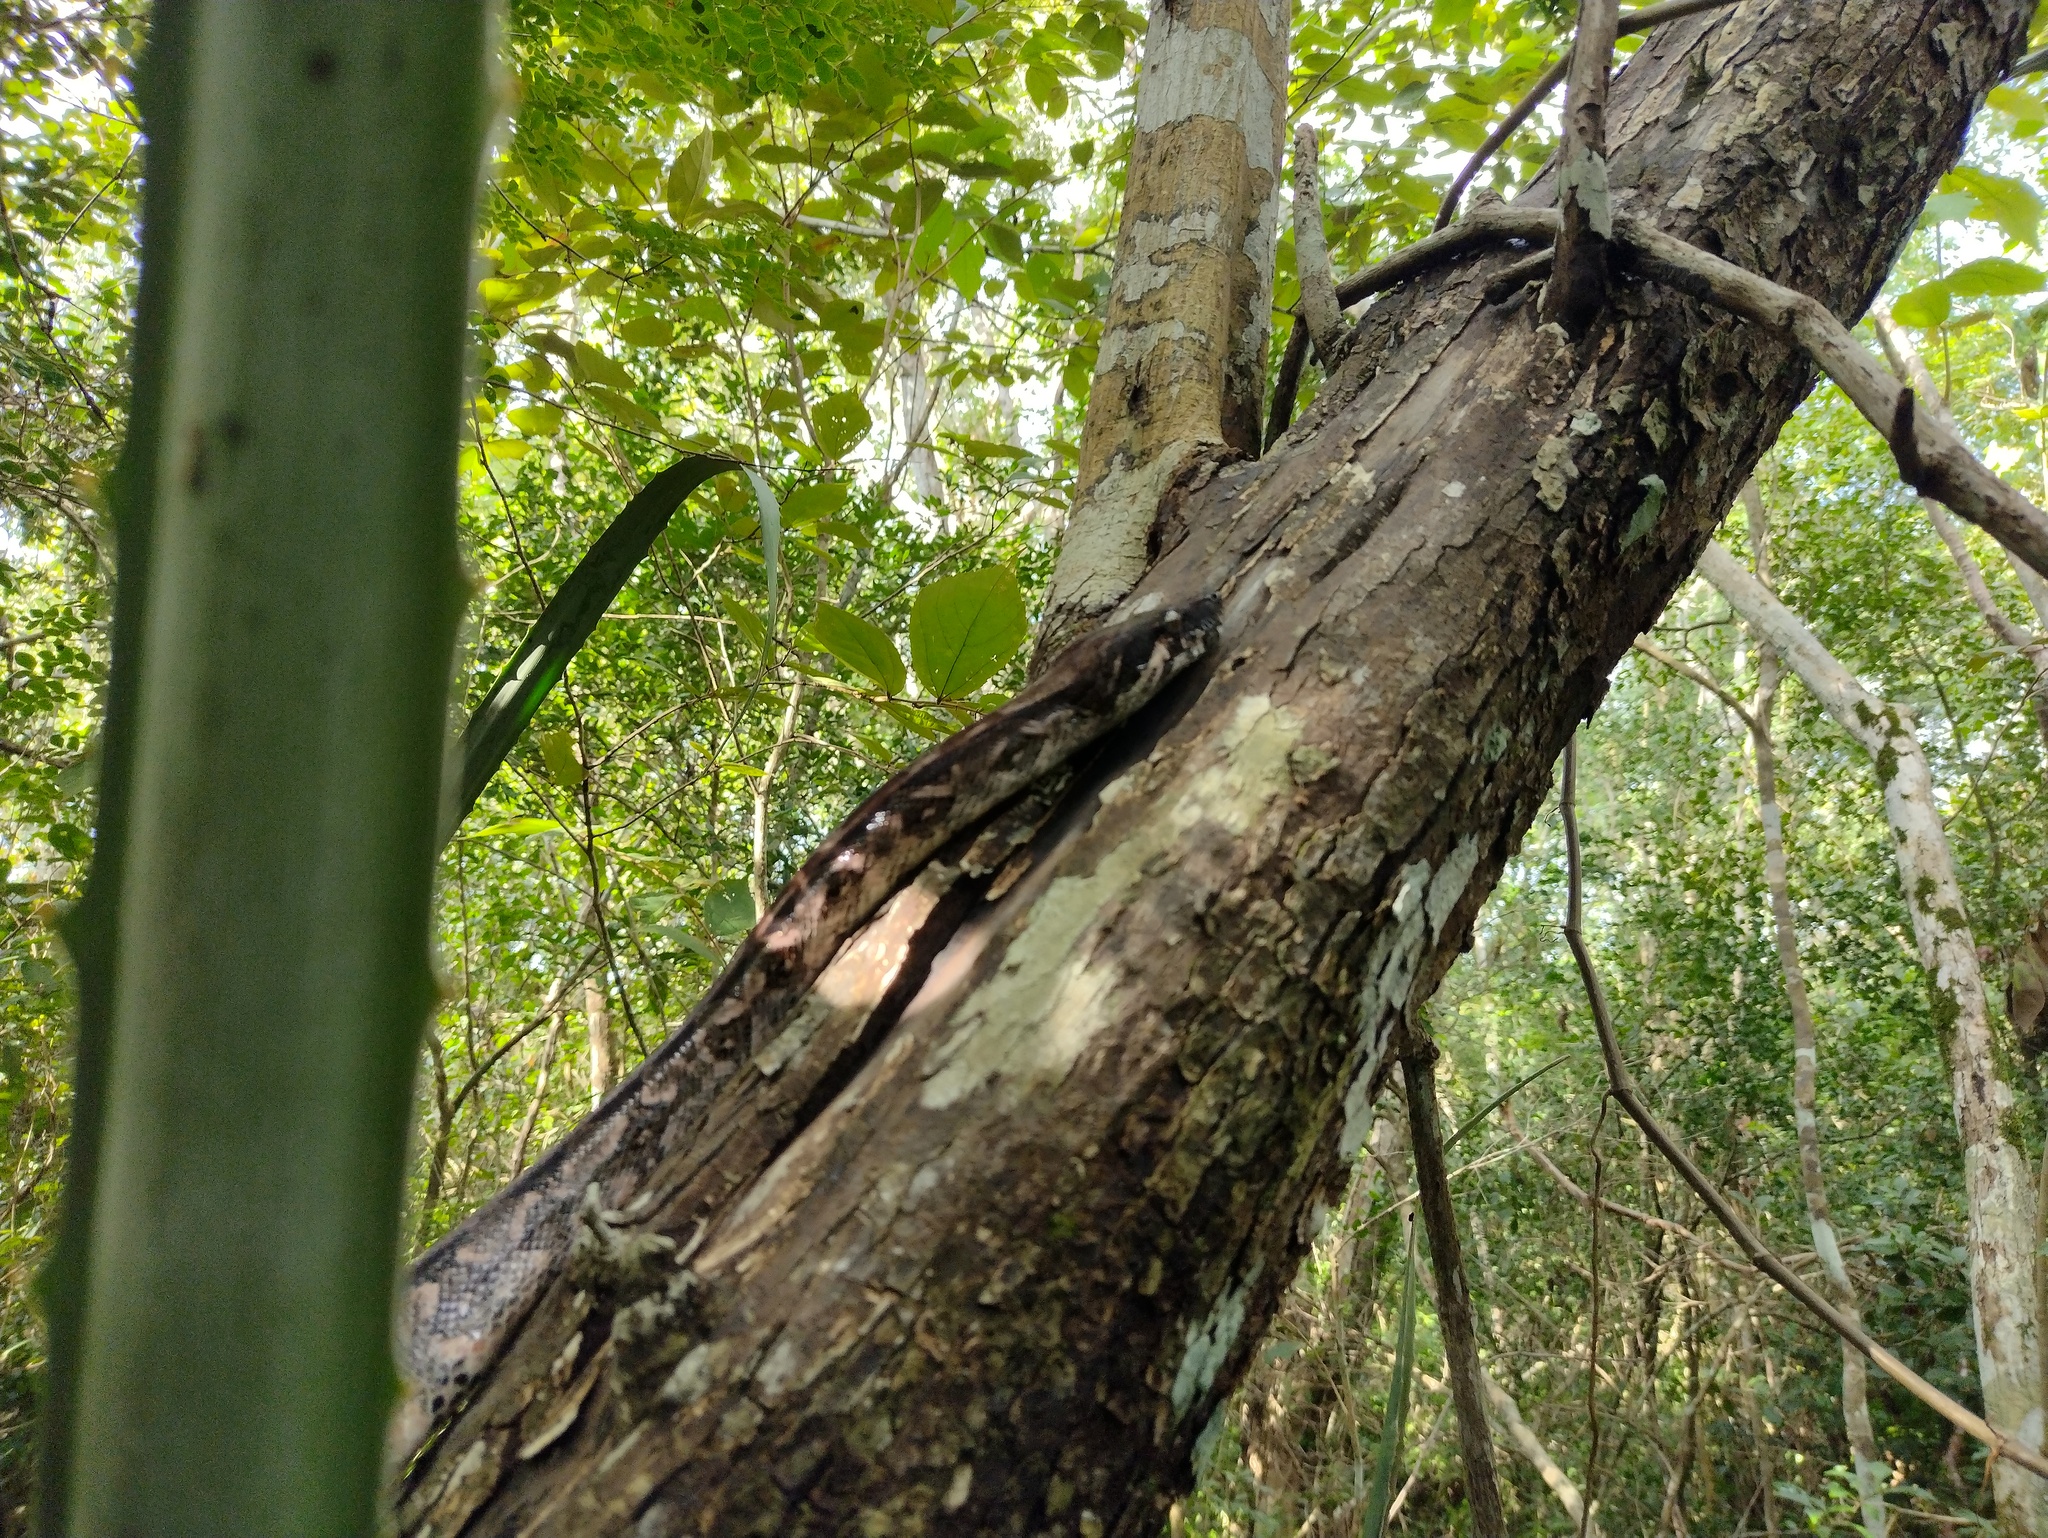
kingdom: Animalia
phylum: Chordata
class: Squamata
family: Boidae
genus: Boa
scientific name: Boa imperator
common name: Central american boa
